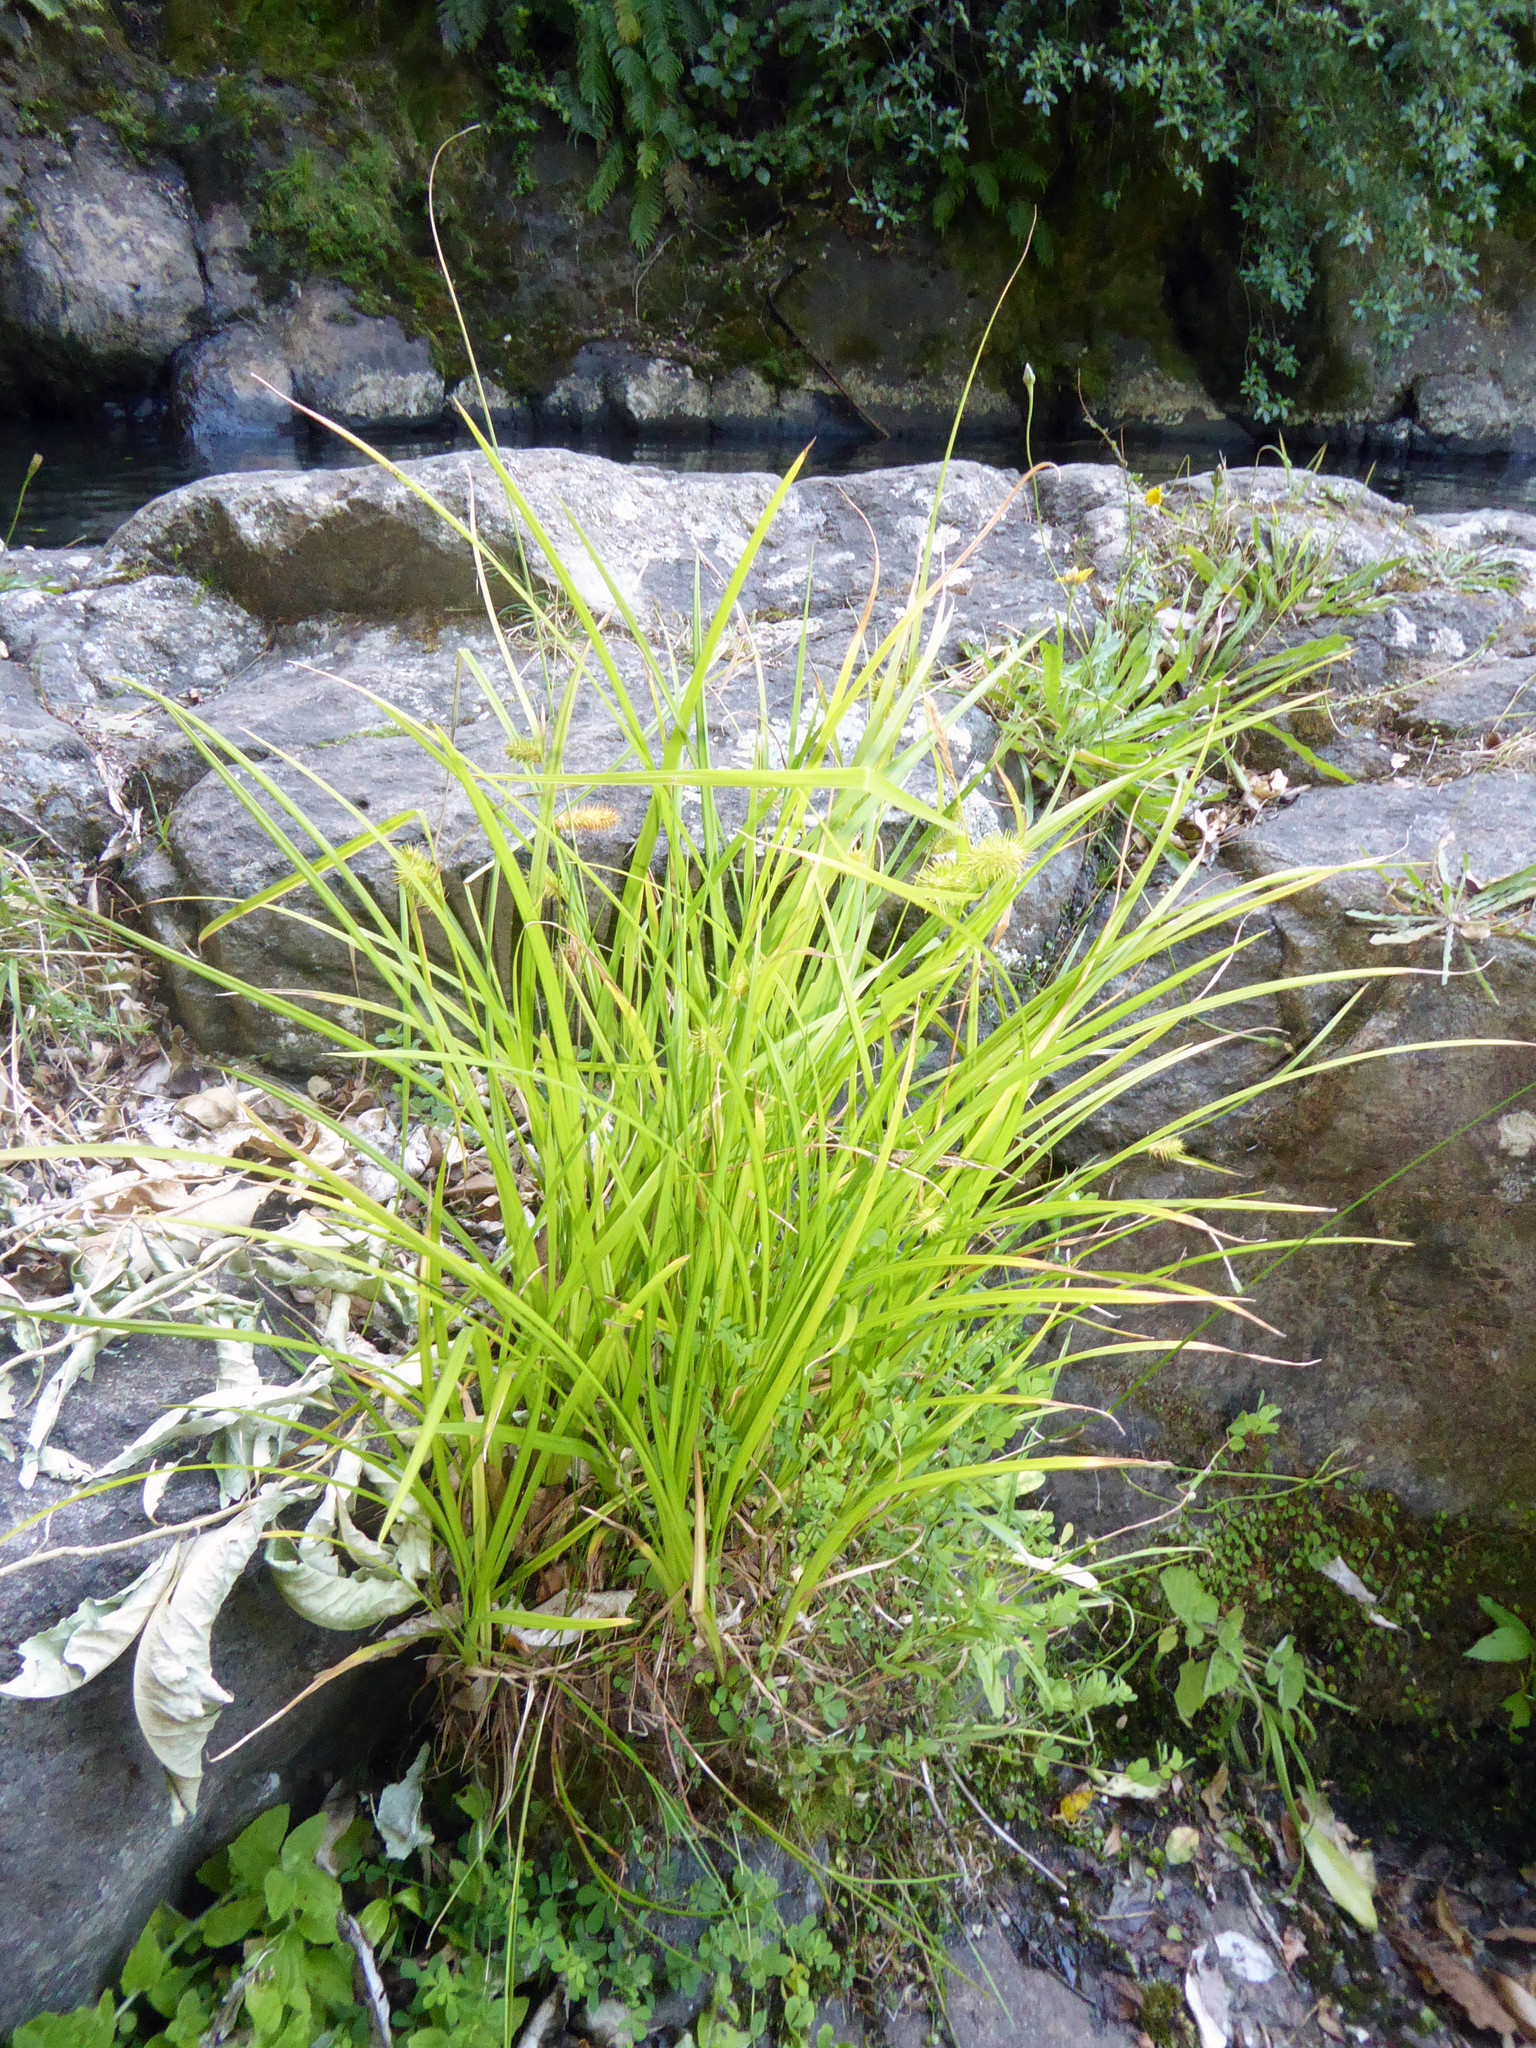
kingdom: Plantae
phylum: Tracheophyta
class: Liliopsida
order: Poales
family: Cyperaceae
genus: Carex
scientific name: Carex lurida
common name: Sallow sedge
